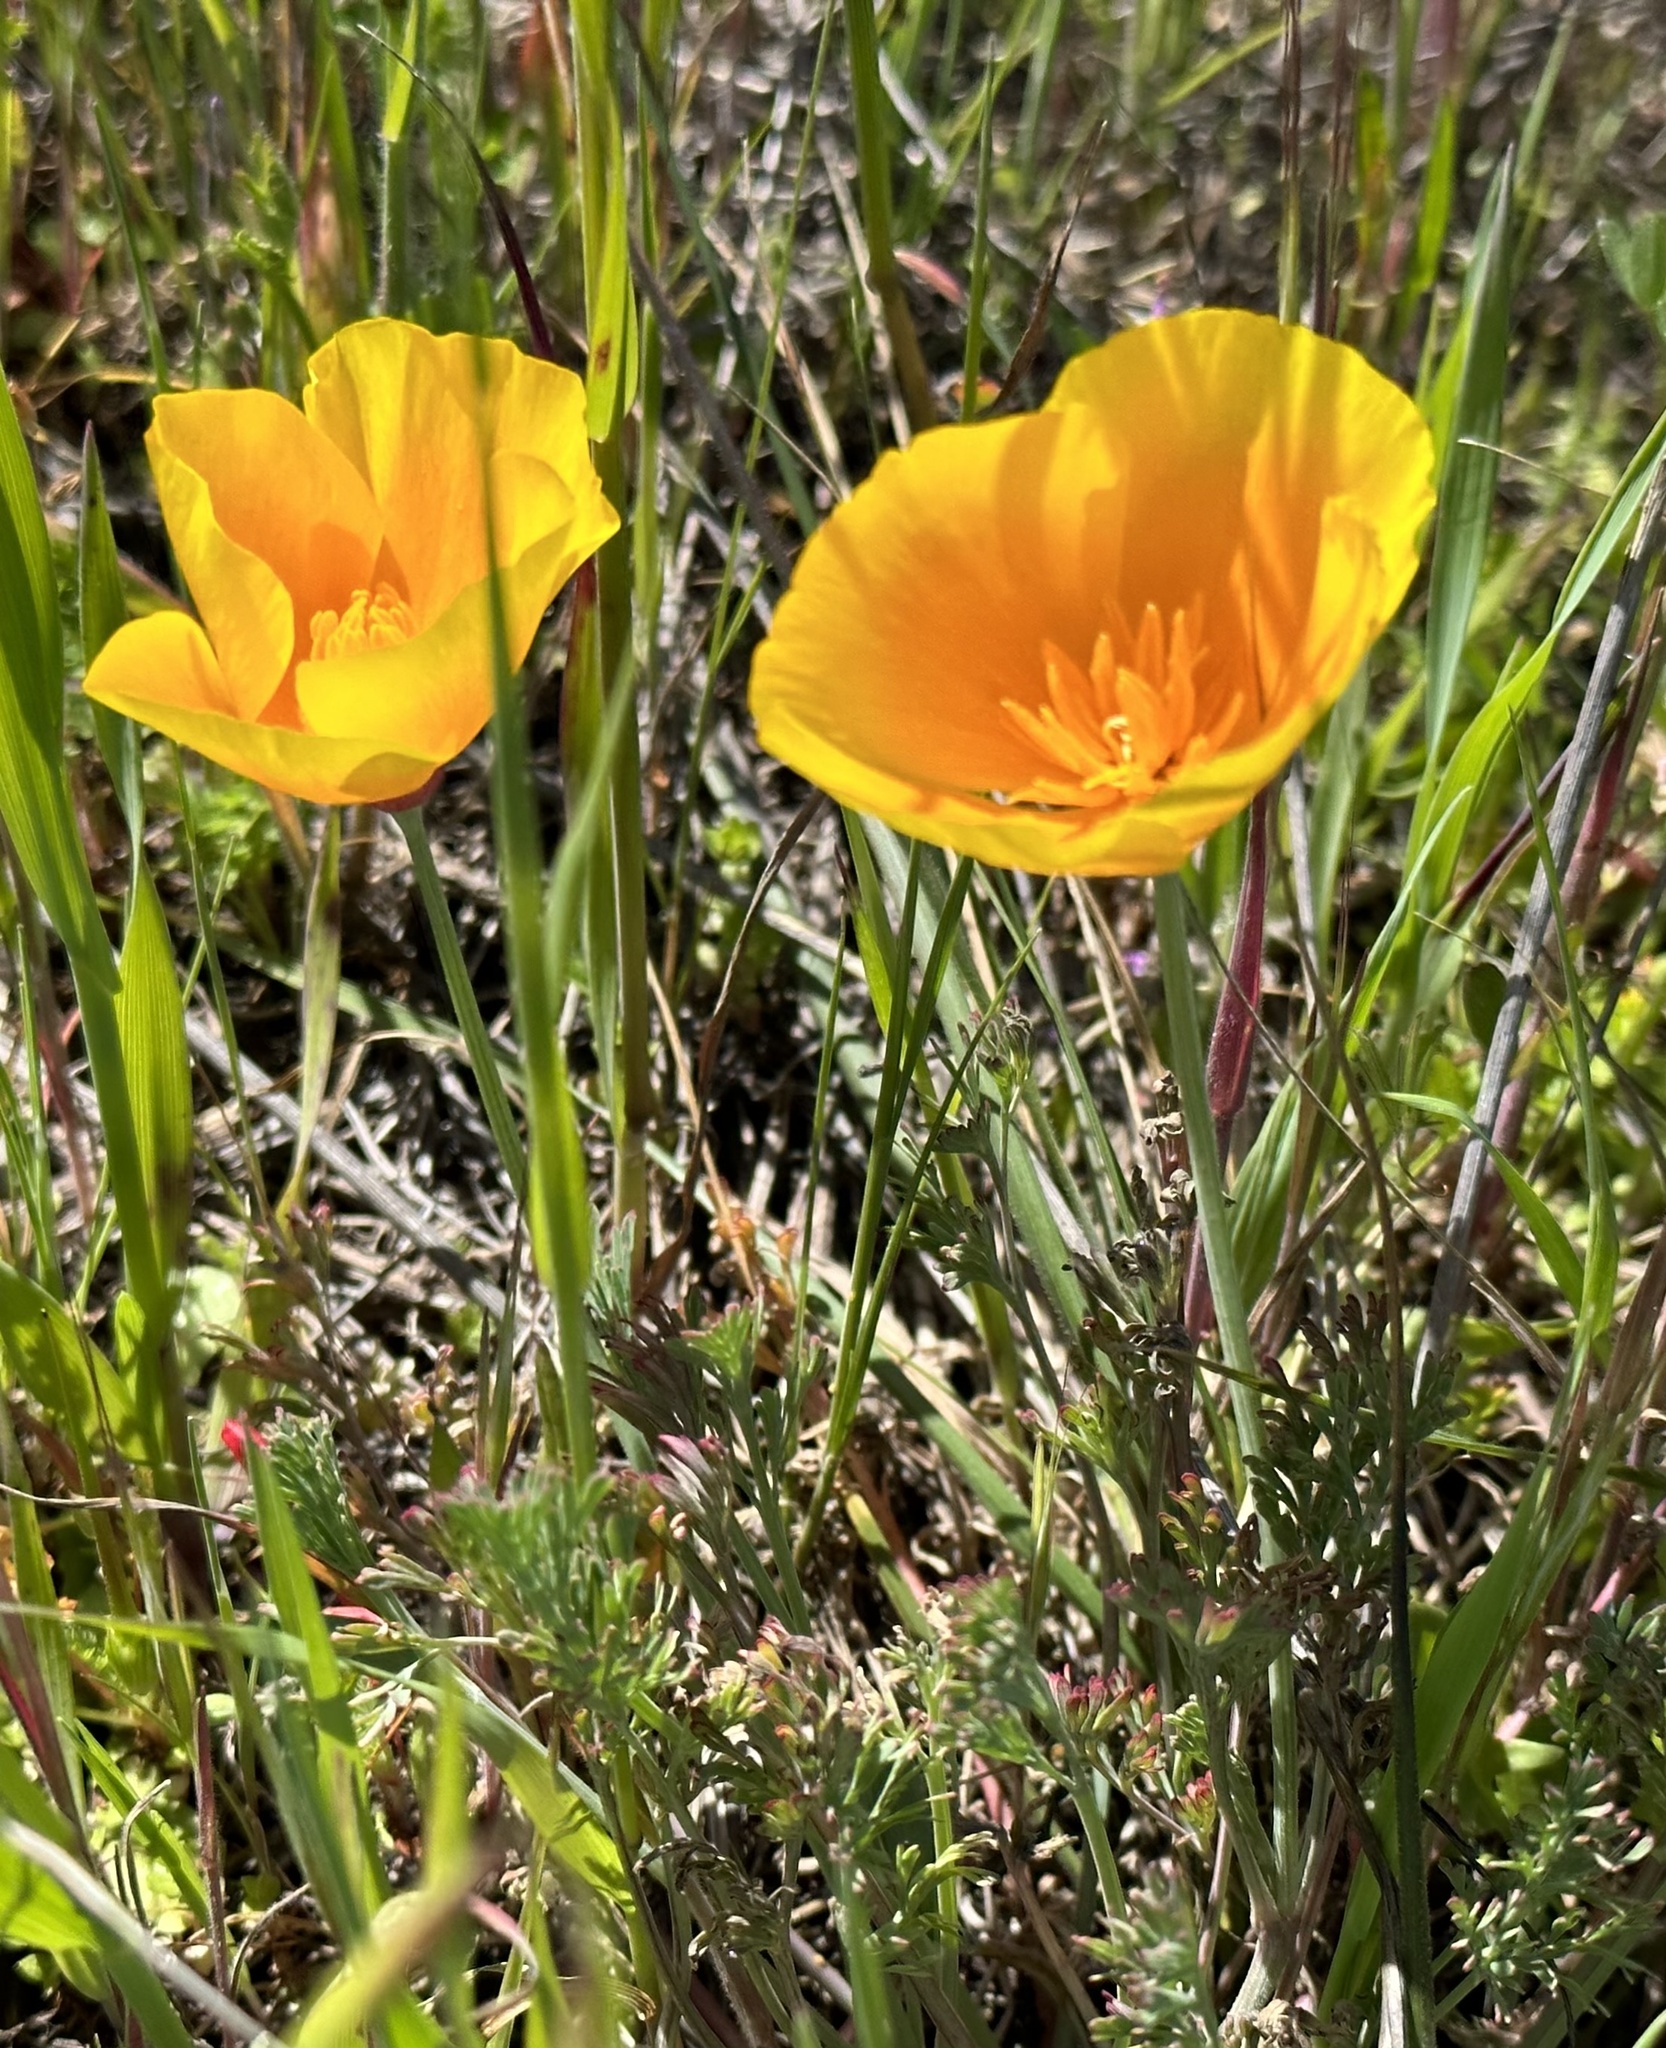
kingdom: Plantae
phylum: Tracheophyta
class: Magnoliopsida
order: Ranunculales
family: Papaveraceae
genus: Eschscholzia
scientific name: Eschscholzia californica
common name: California poppy
